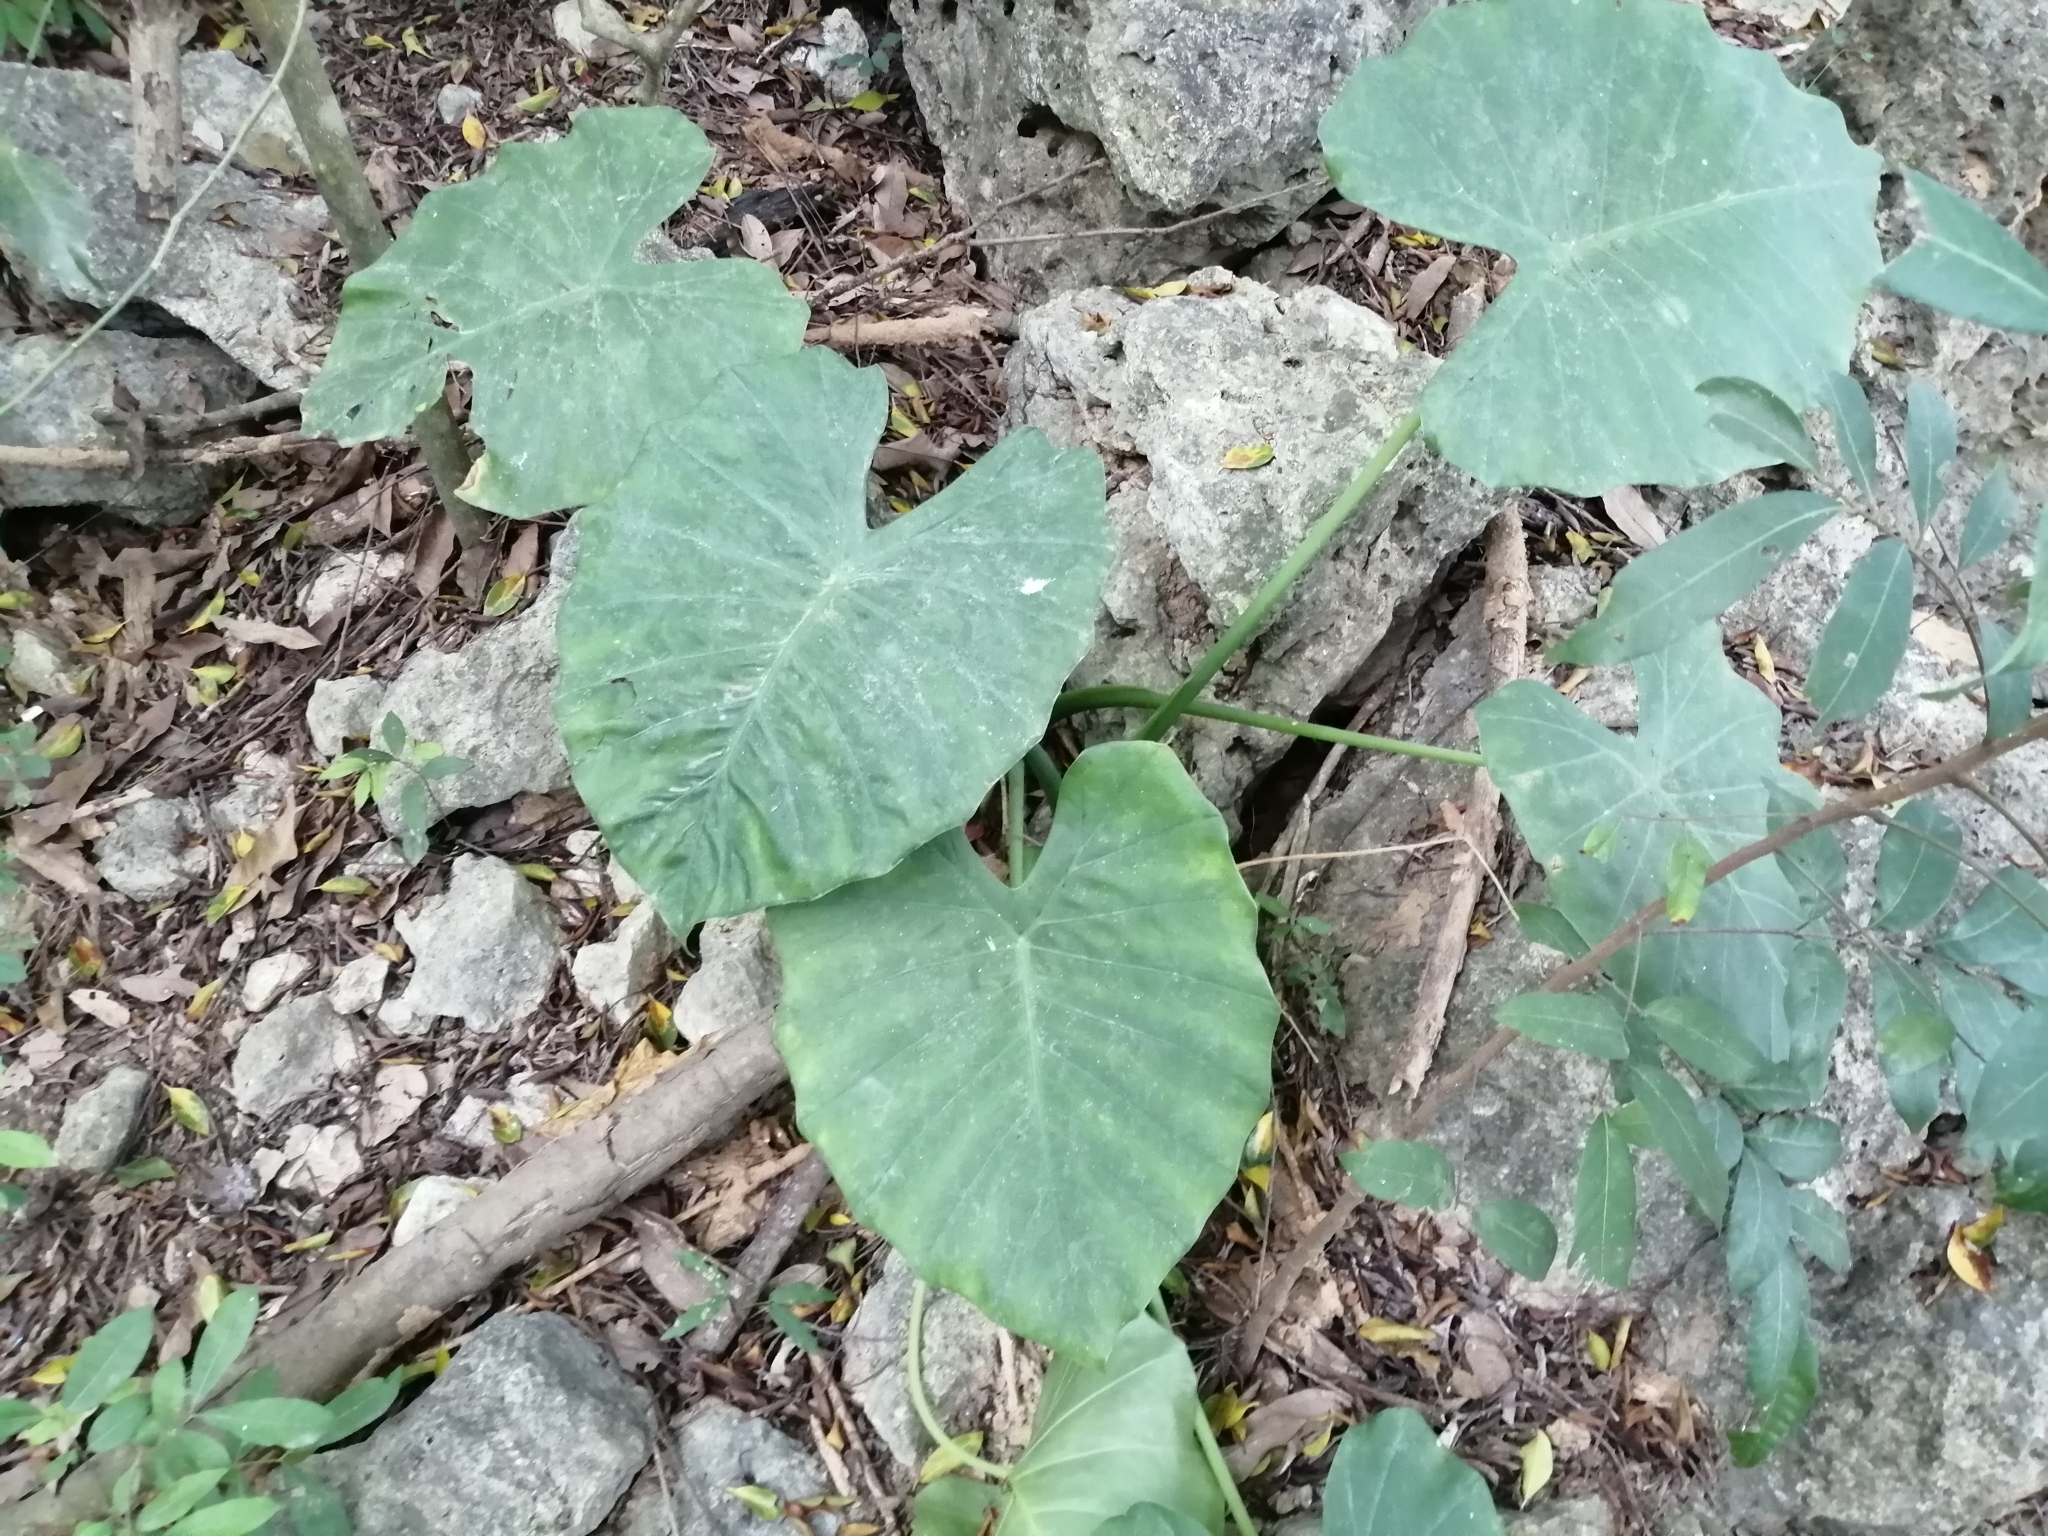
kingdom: Plantae
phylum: Tracheophyta
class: Liliopsida
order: Alismatales
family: Araceae
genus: Alocasia
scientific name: Alocasia odora
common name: Asian taro
